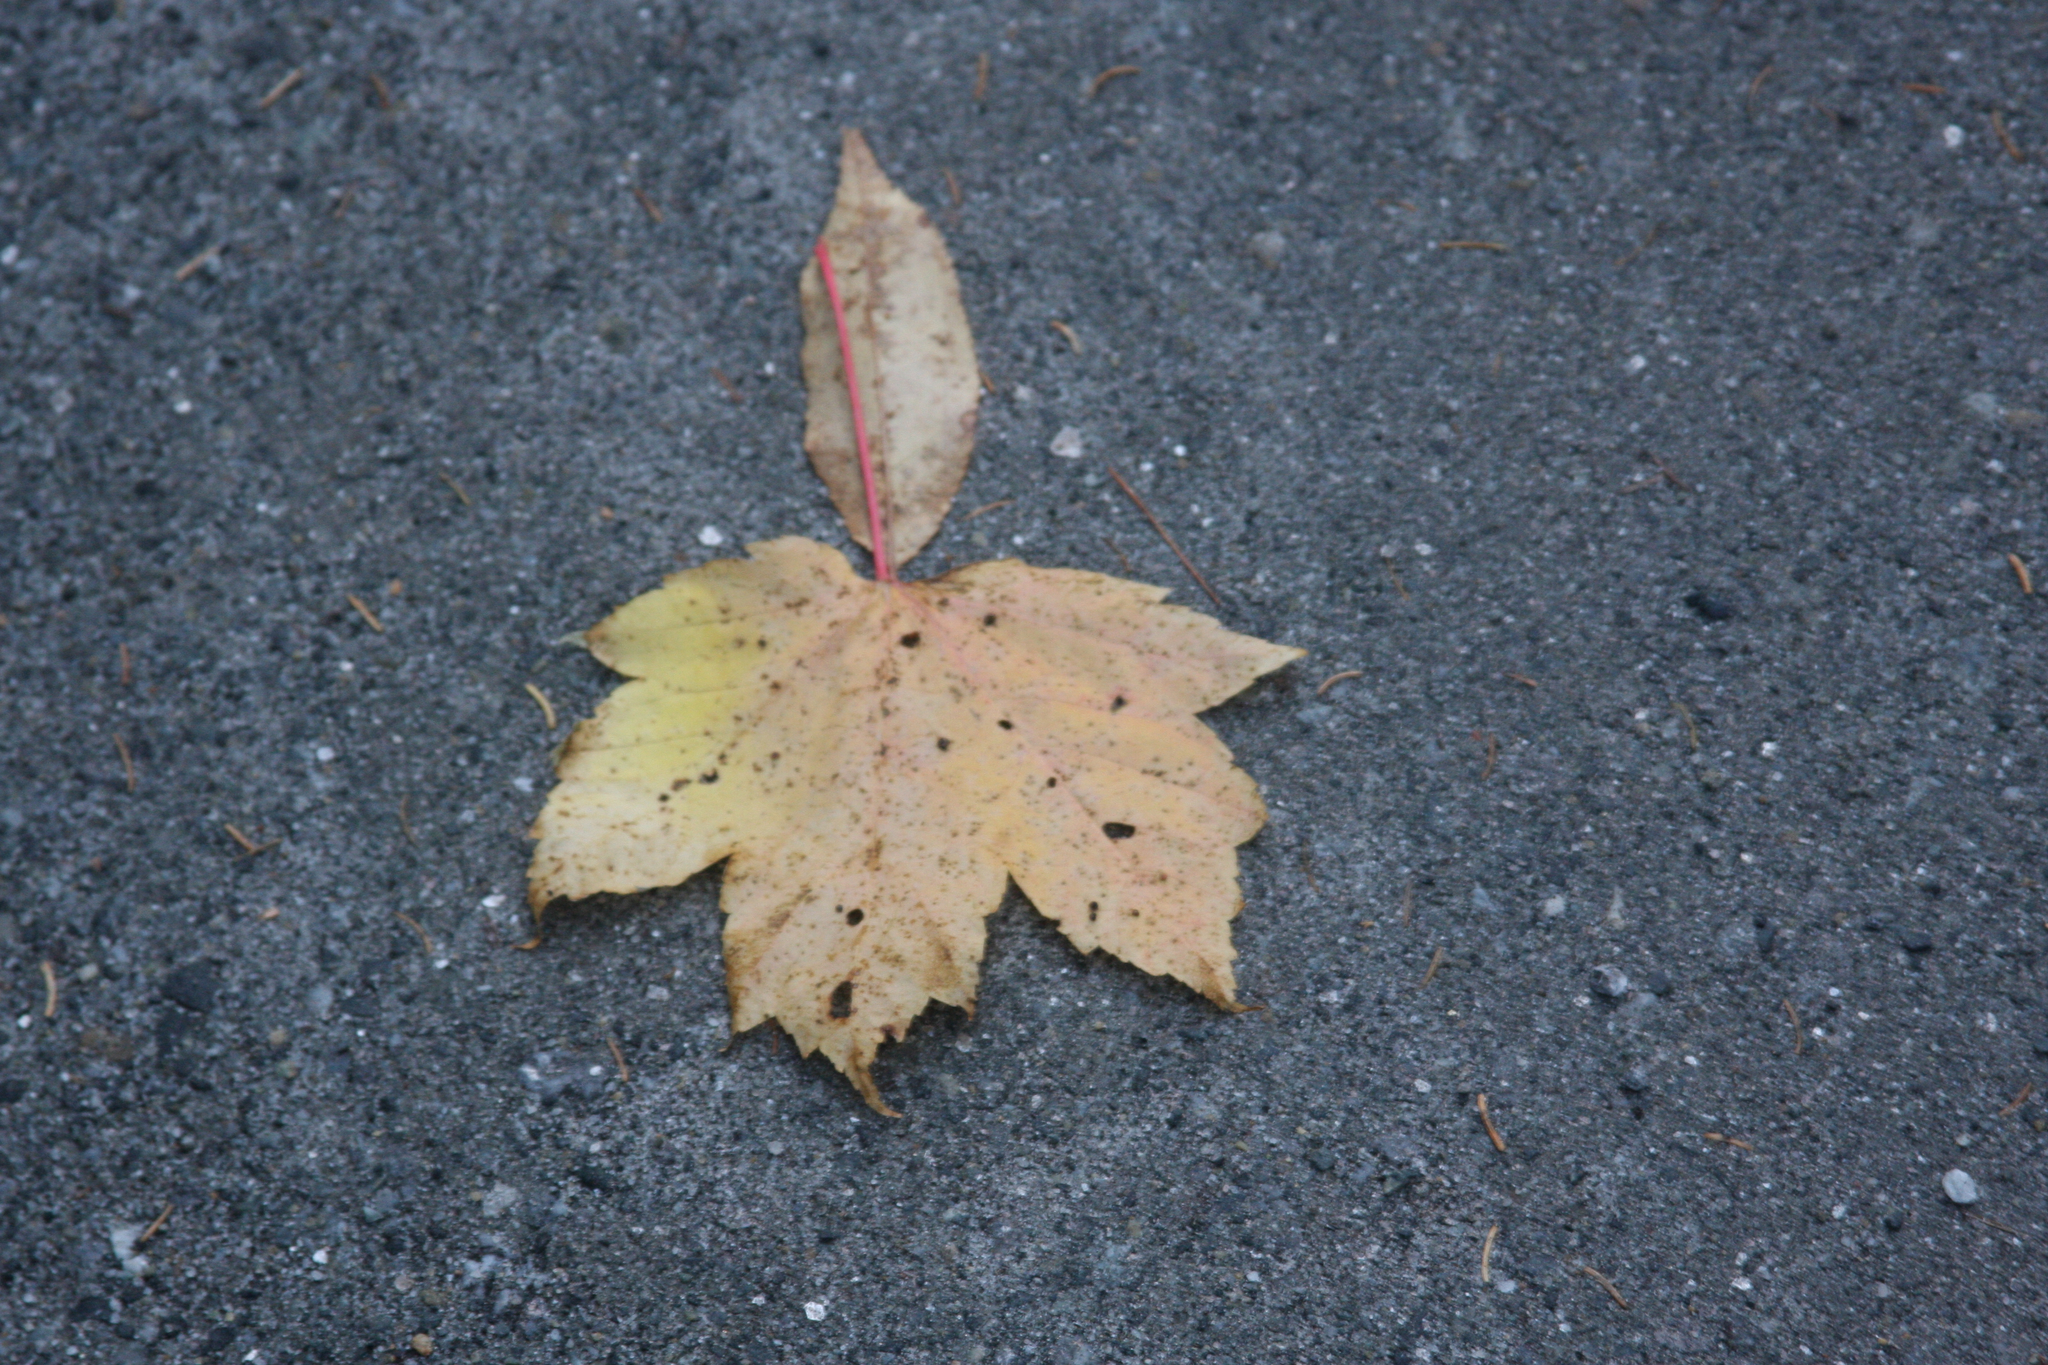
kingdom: Plantae
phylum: Tracheophyta
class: Magnoliopsida
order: Sapindales
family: Sapindaceae
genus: Acer
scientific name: Acer rubrum
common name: Red maple
